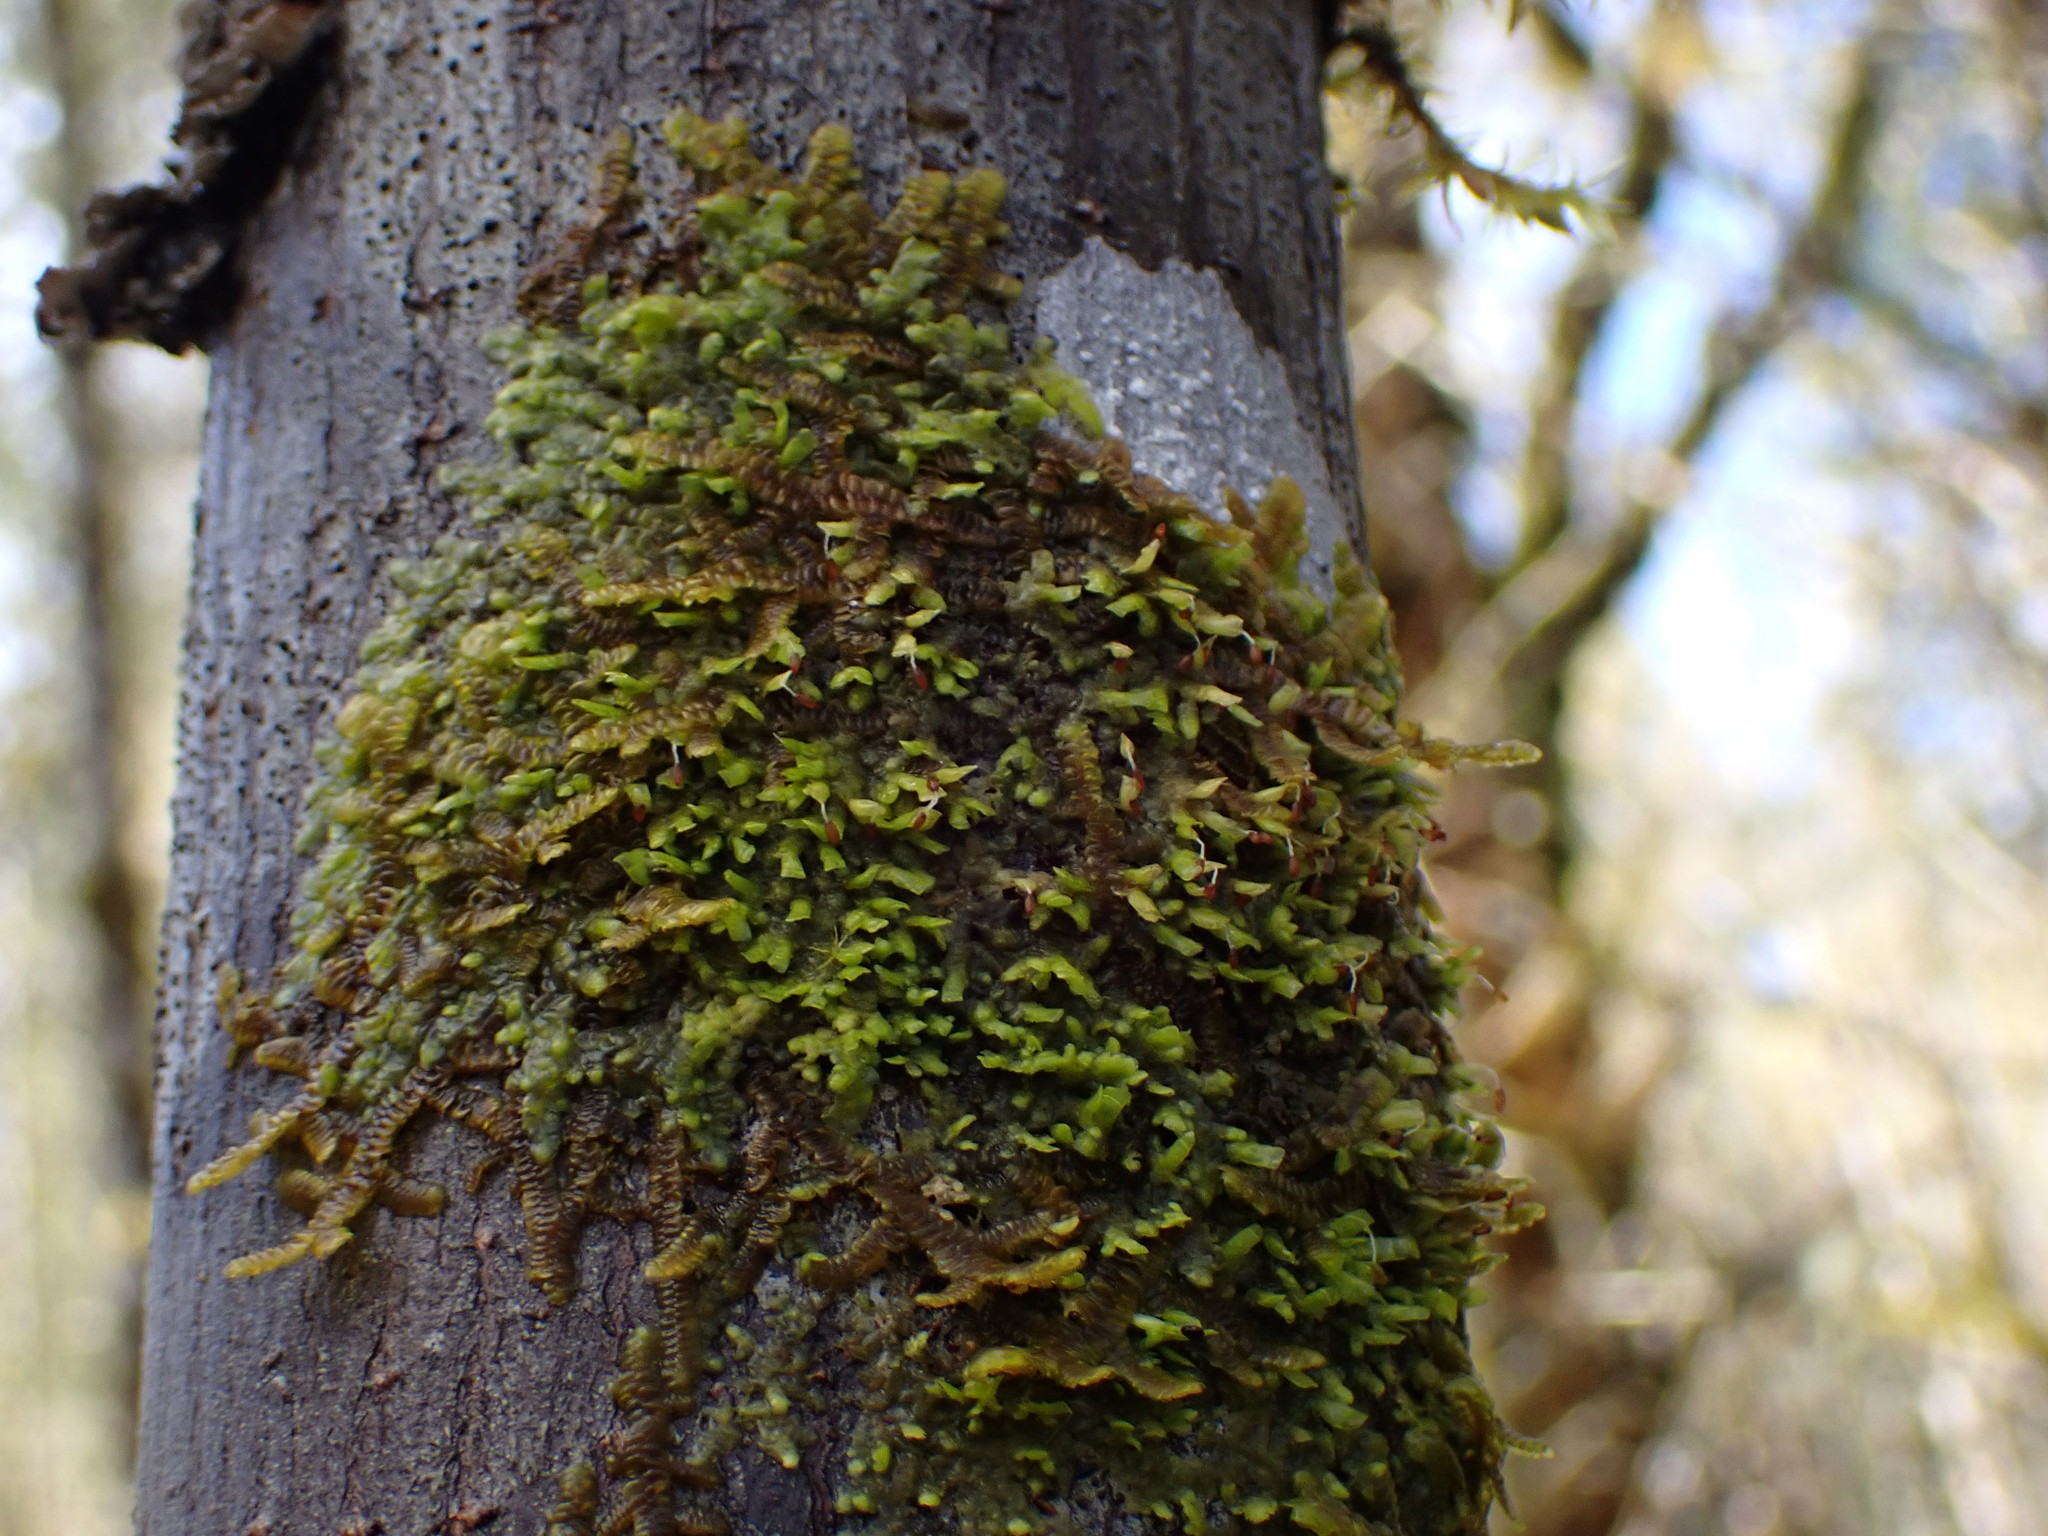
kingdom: Plantae
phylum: Marchantiophyta
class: Jungermanniopsida
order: Porellales
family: Radulaceae
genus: Radula
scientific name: Radula complanata
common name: Flat-leaved scalewort
